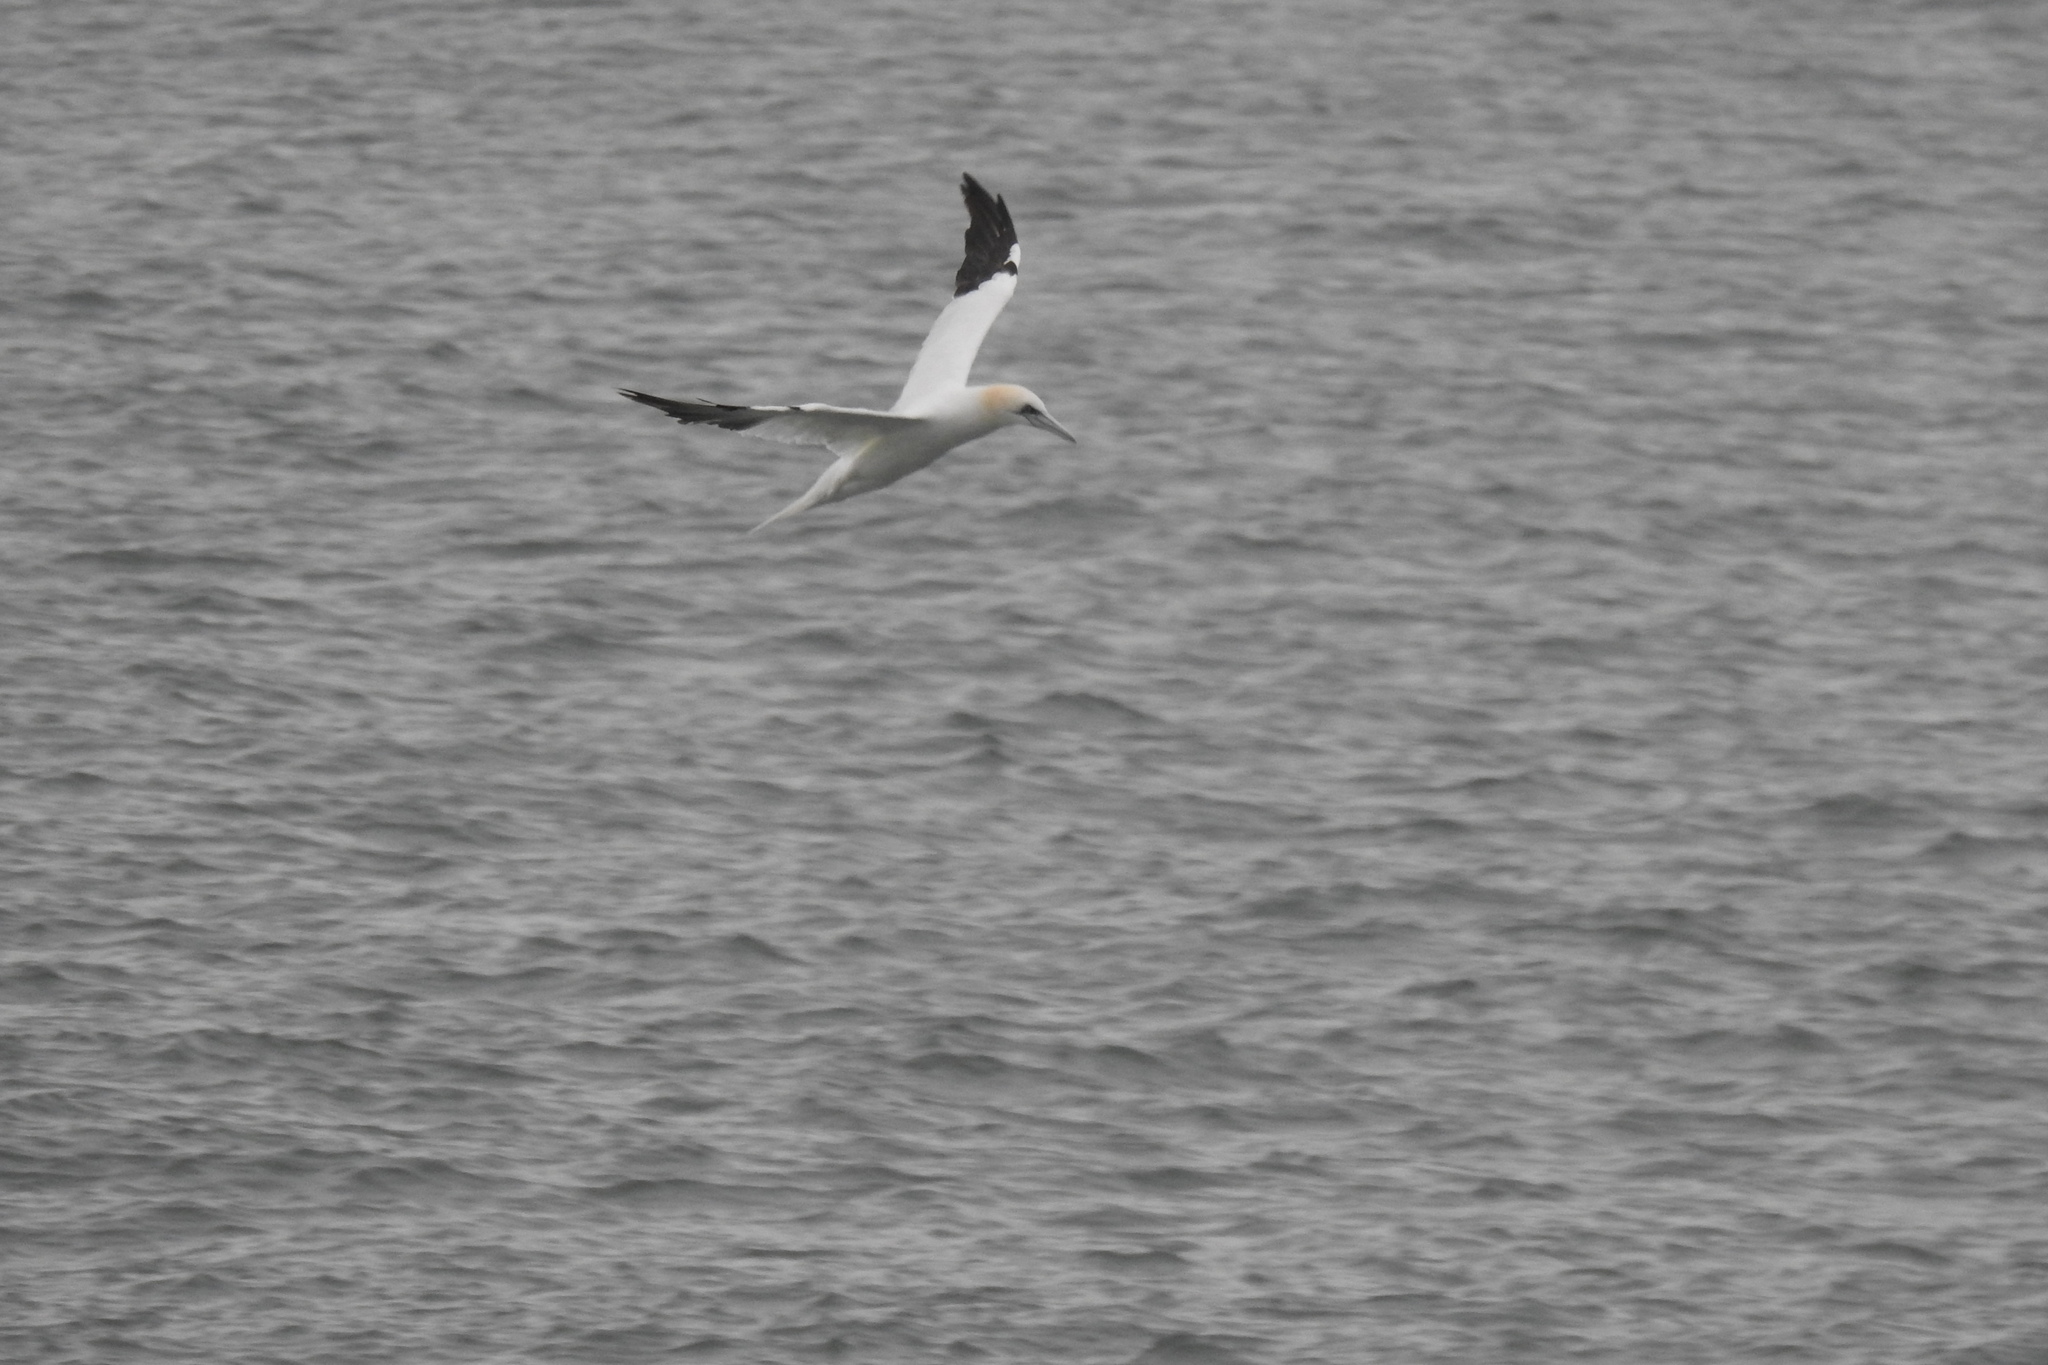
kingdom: Animalia
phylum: Chordata
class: Aves
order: Suliformes
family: Sulidae
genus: Morus
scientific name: Morus bassanus
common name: Northern gannet
